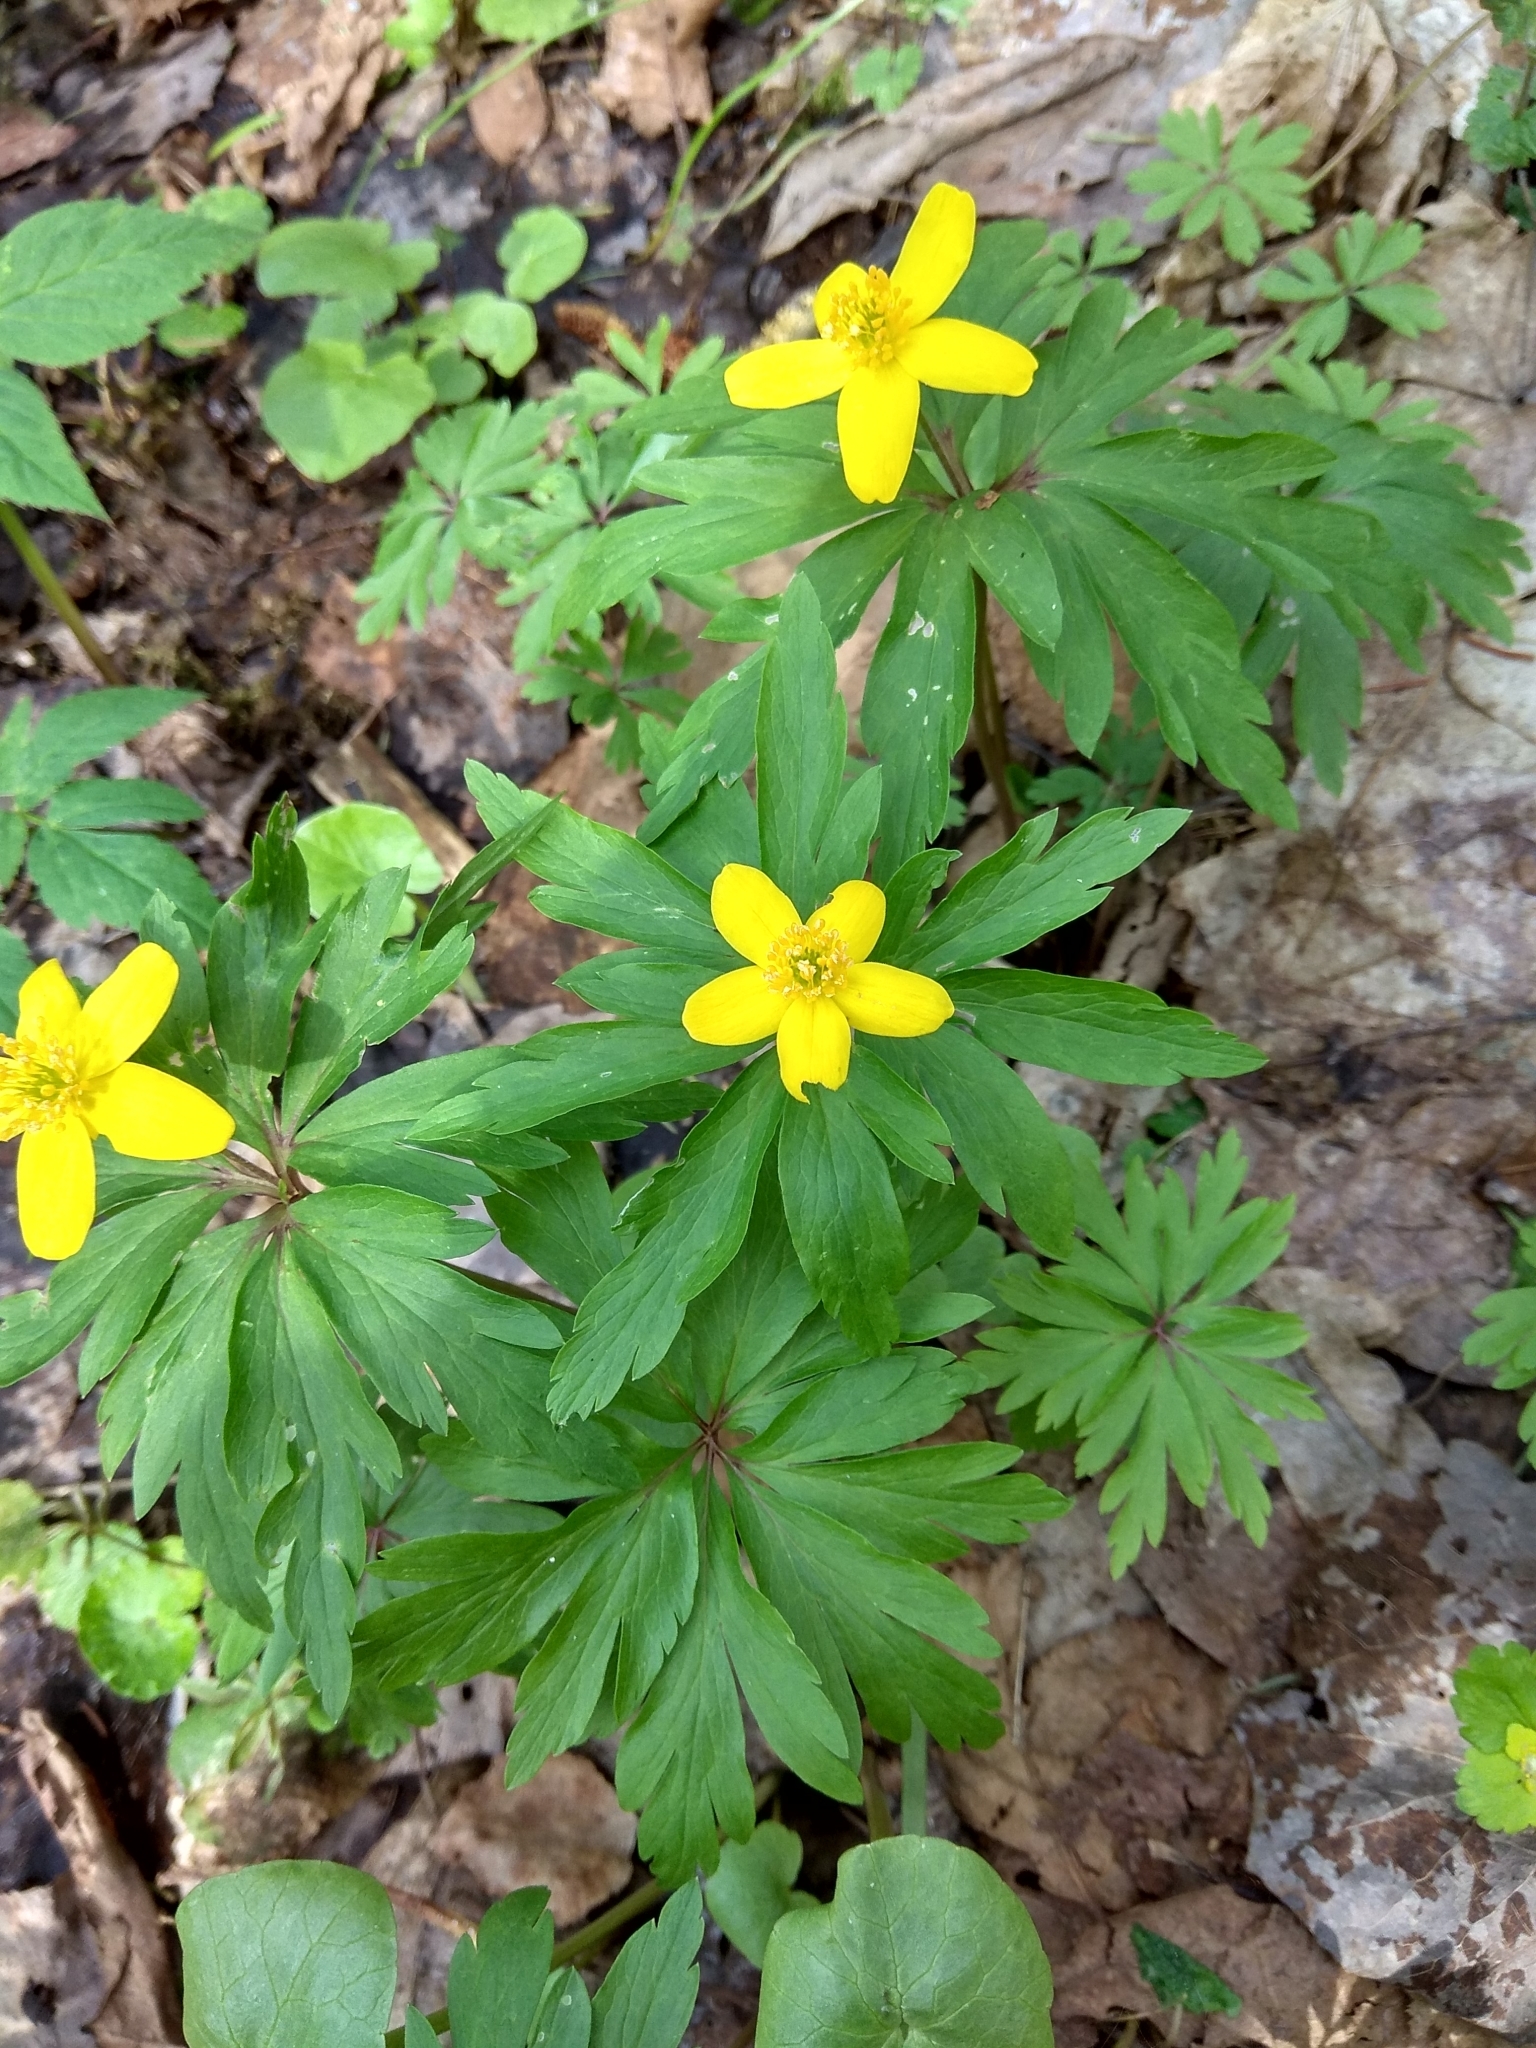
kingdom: Plantae
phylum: Tracheophyta
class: Magnoliopsida
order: Ranunculales
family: Ranunculaceae
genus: Anemone
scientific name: Anemone ranunculoides
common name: Yellow anemone
